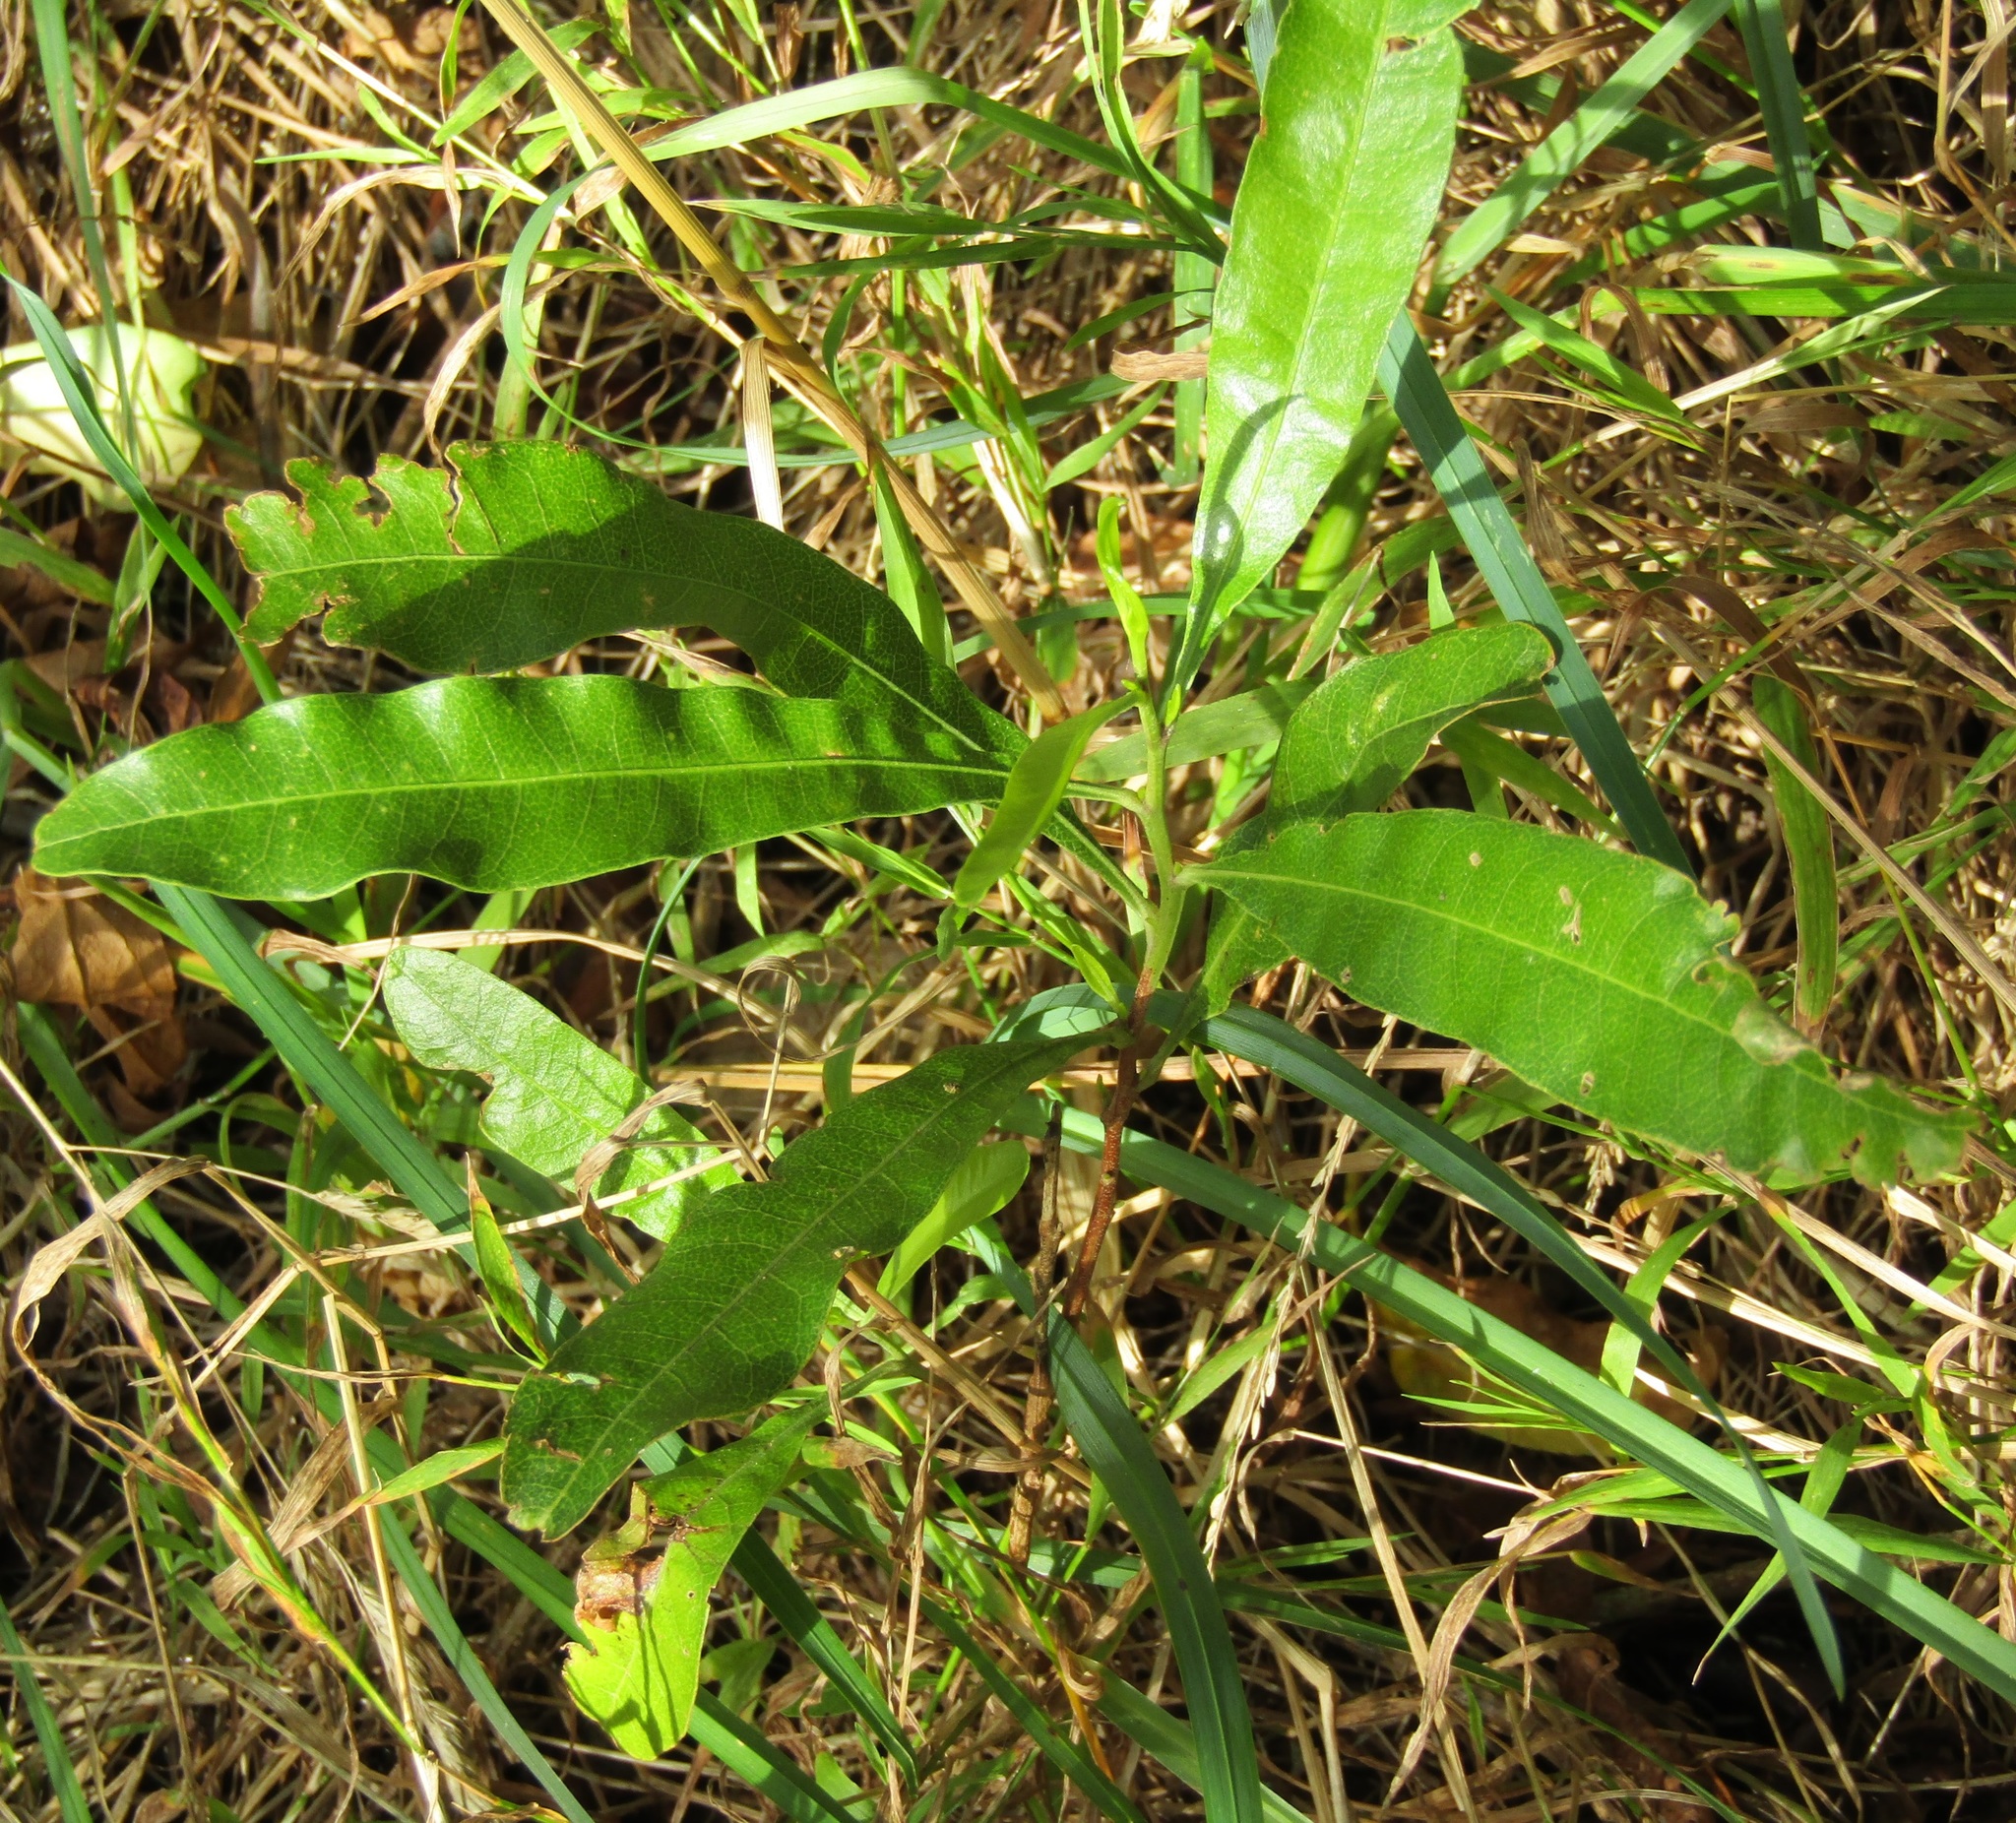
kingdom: Plantae
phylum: Tracheophyta
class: Magnoliopsida
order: Sapindales
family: Sapindaceae
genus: Dodonaea
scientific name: Dodonaea viscosa
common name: Hopbush
